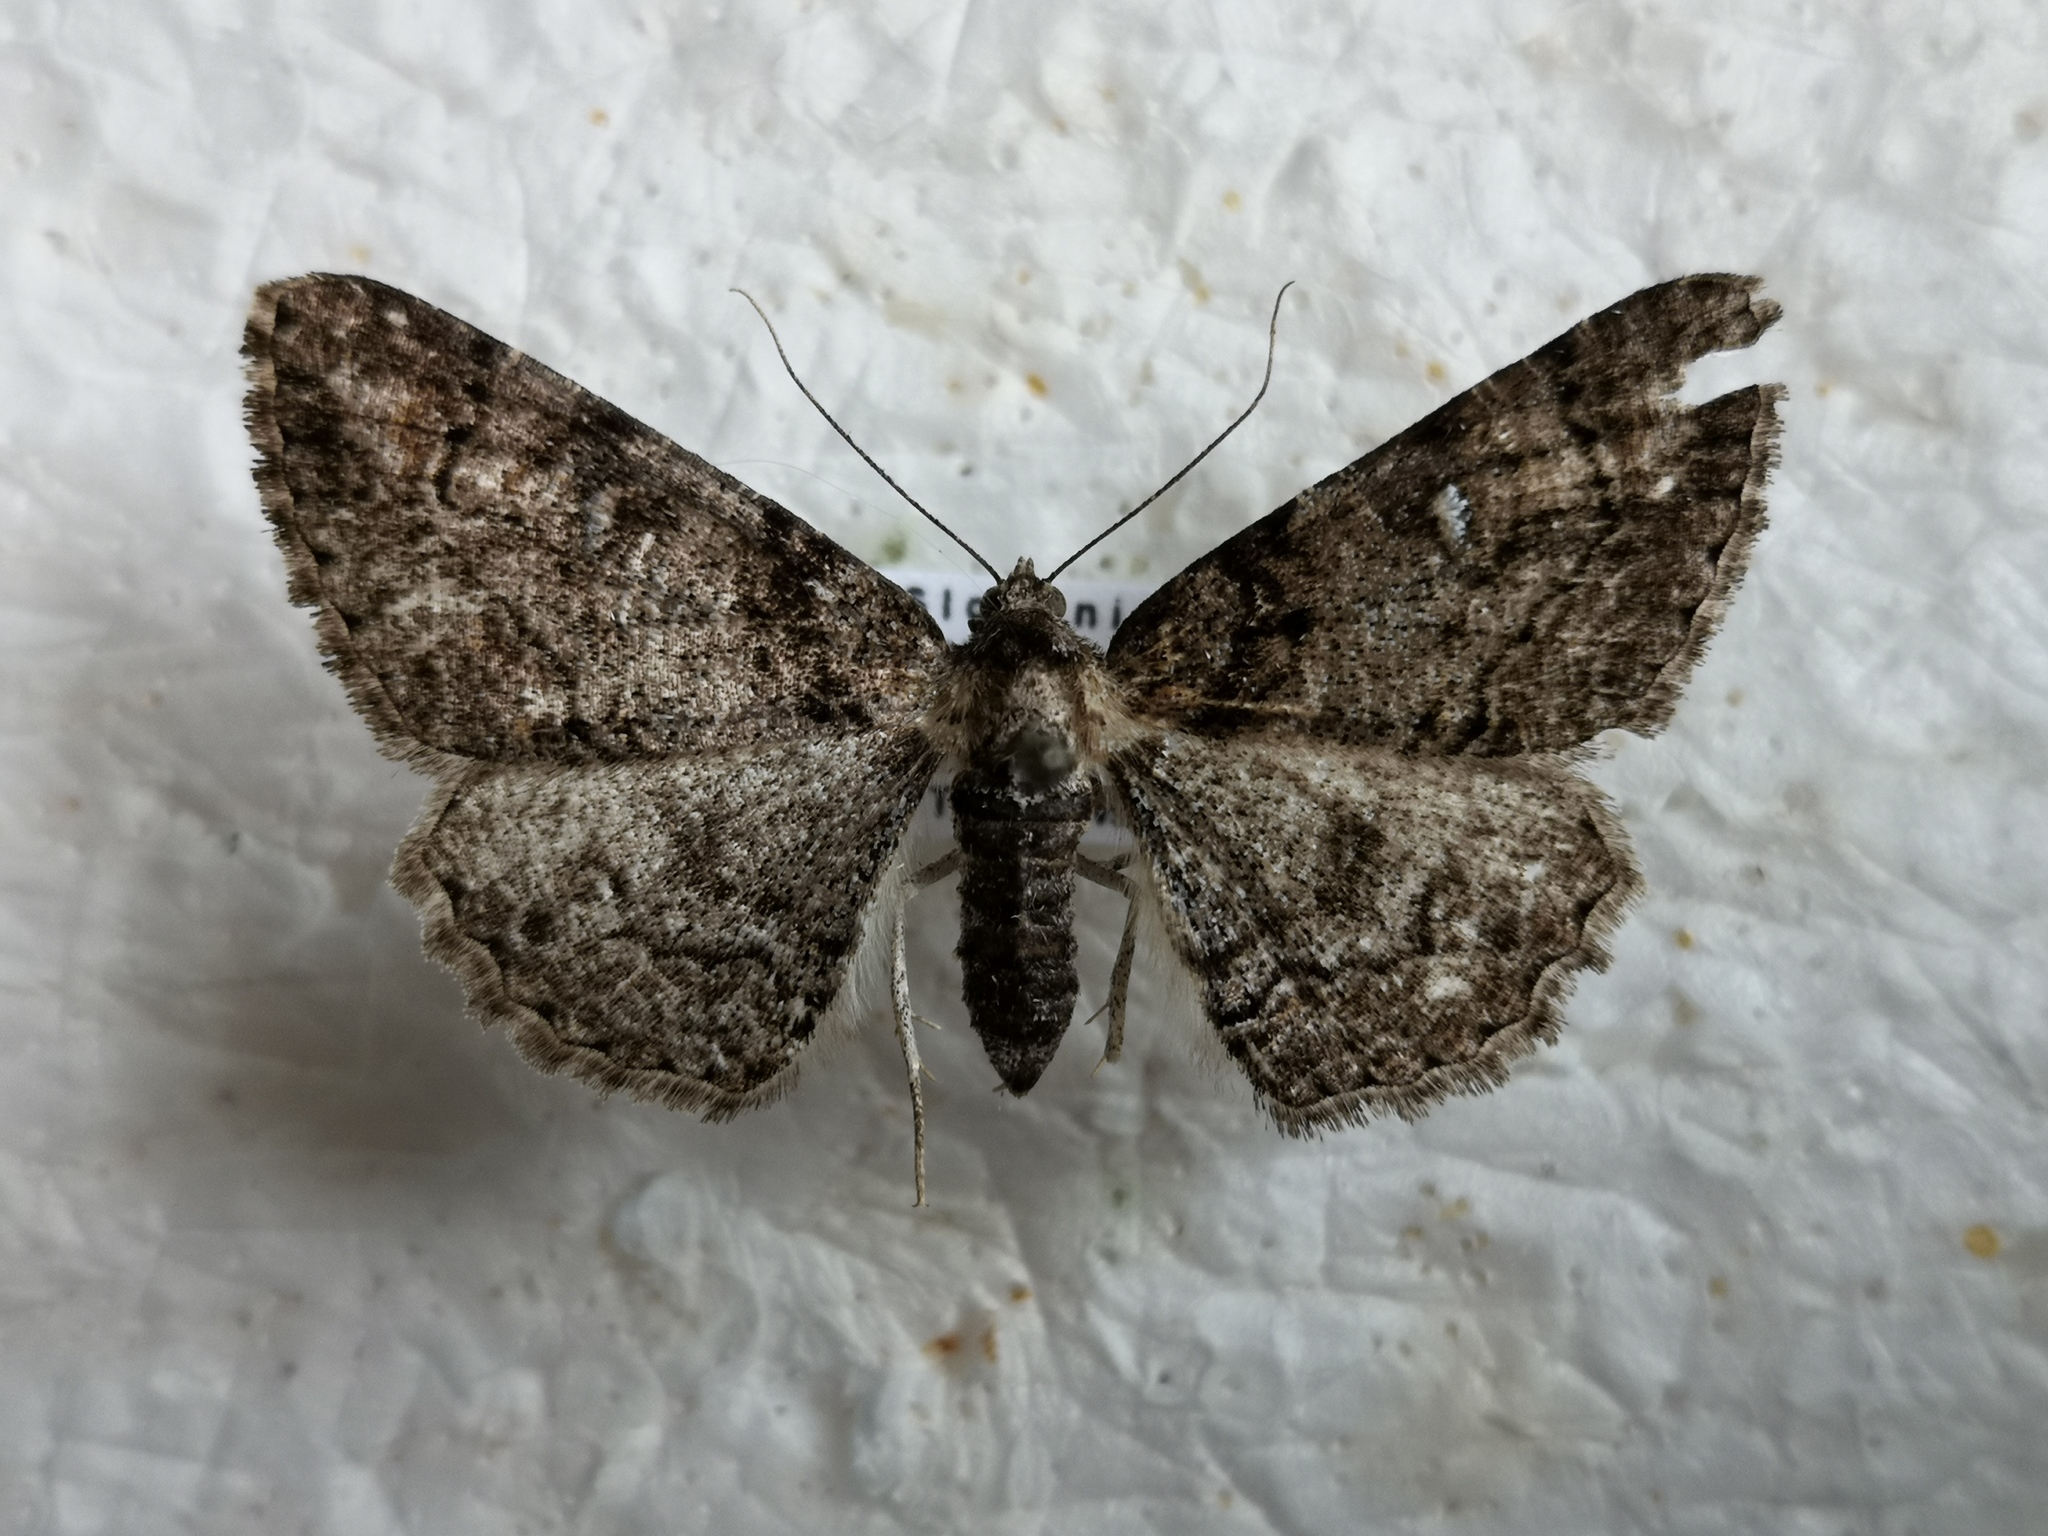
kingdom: Animalia
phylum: Arthropoda
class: Insecta
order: Lepidoptera
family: Geometridae
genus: Cleora
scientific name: Cleora cinctaria
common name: Ringed carpet
